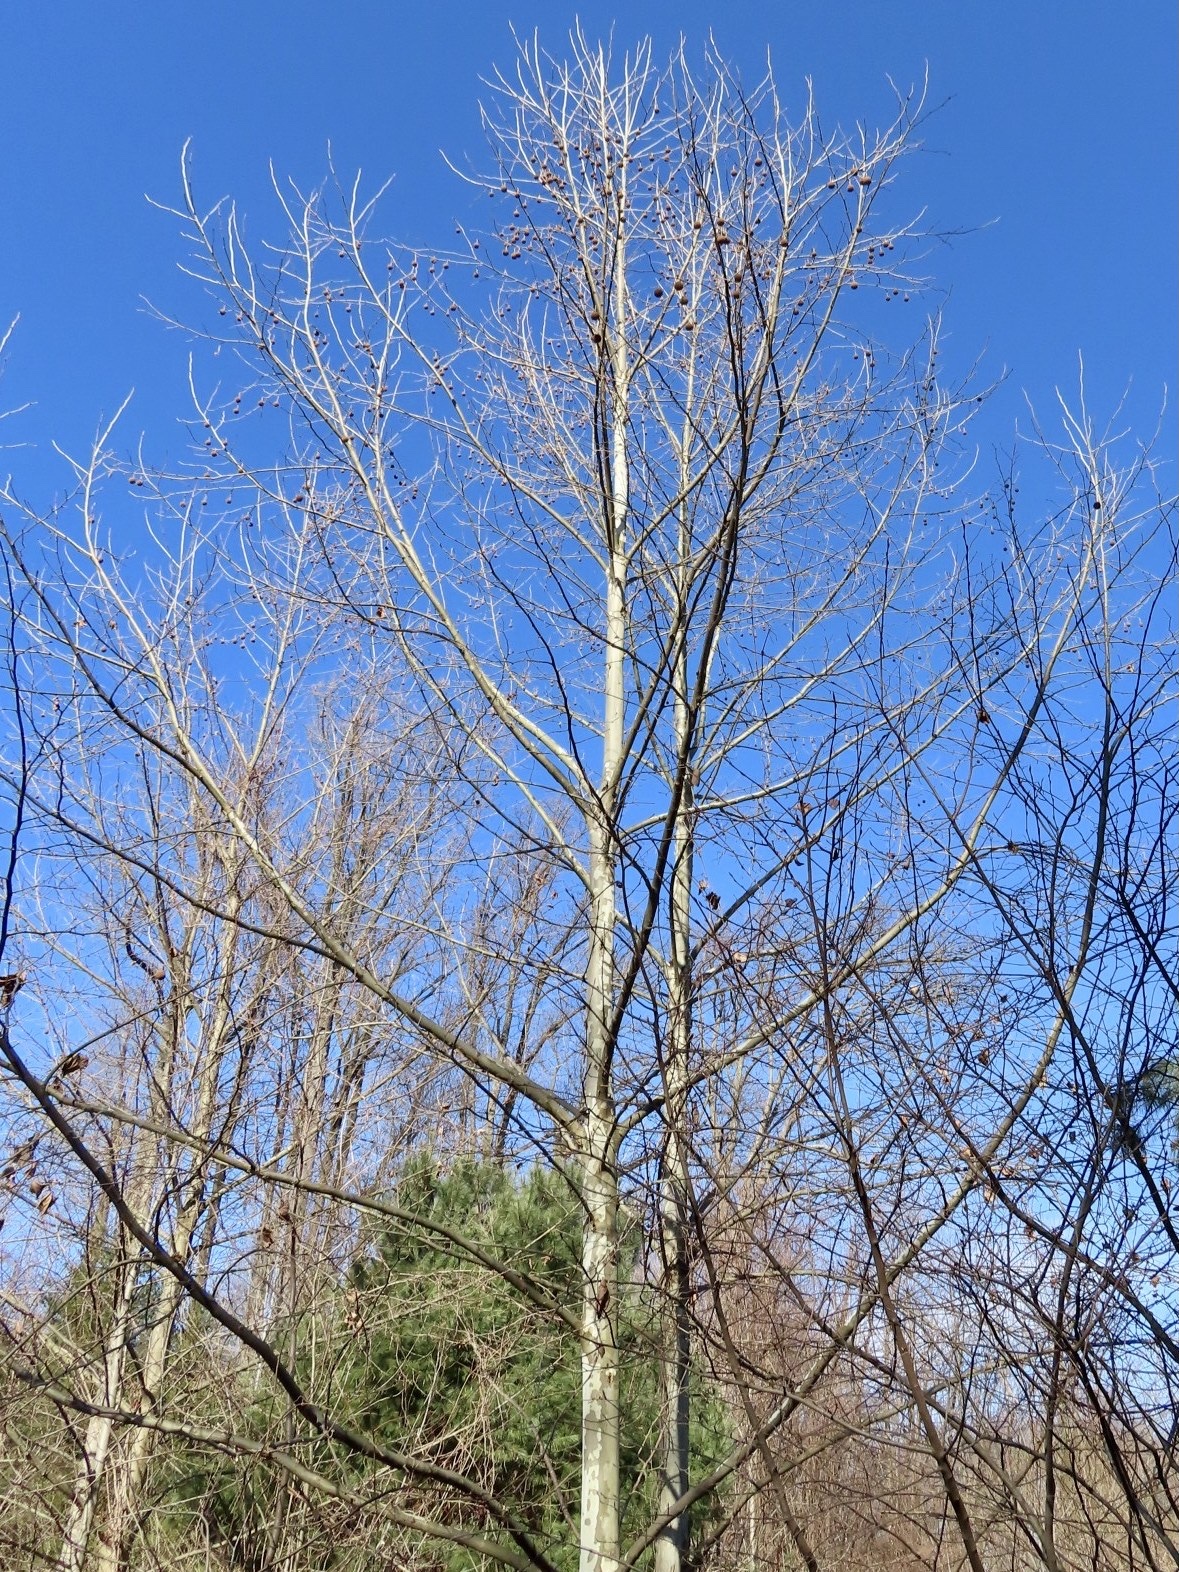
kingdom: Plantae
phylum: Tracheophyta
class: Magnoliopsida
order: Proteales
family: Platanaceae
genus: Platanus
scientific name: Platanus occidentalis
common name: American sycamore
